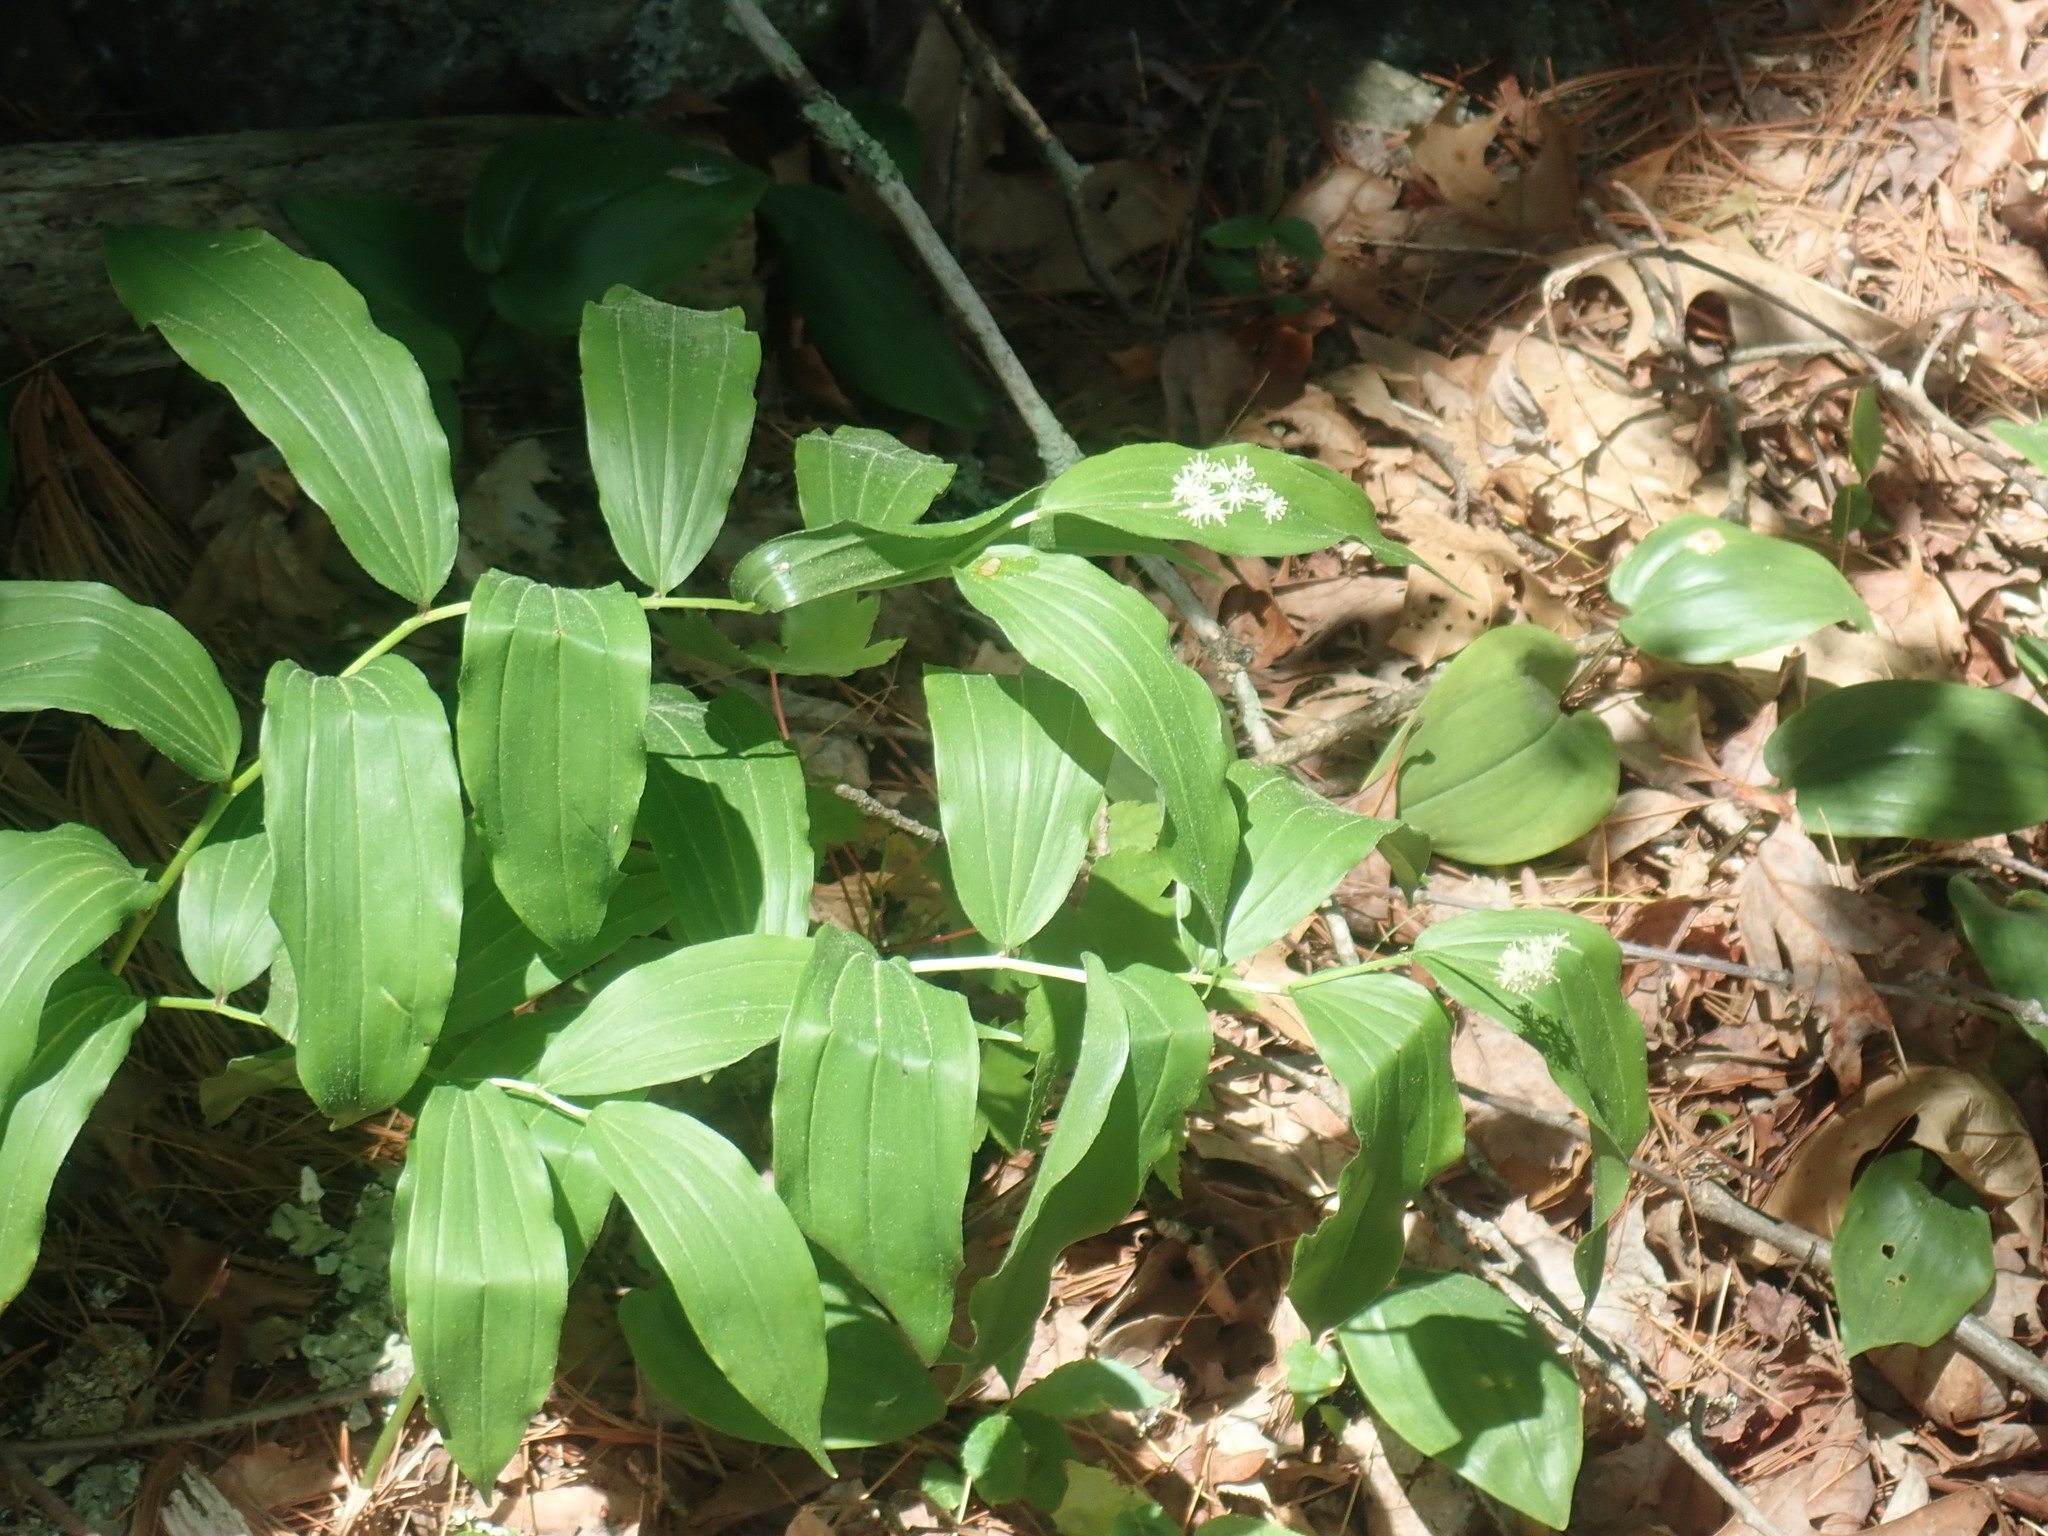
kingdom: Plantae
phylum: Tracheophyta
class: Liliopsida
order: Asparagales
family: Asparagaceae
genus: Maianthemum
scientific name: Maianthemum racemosum
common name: False spikenard
